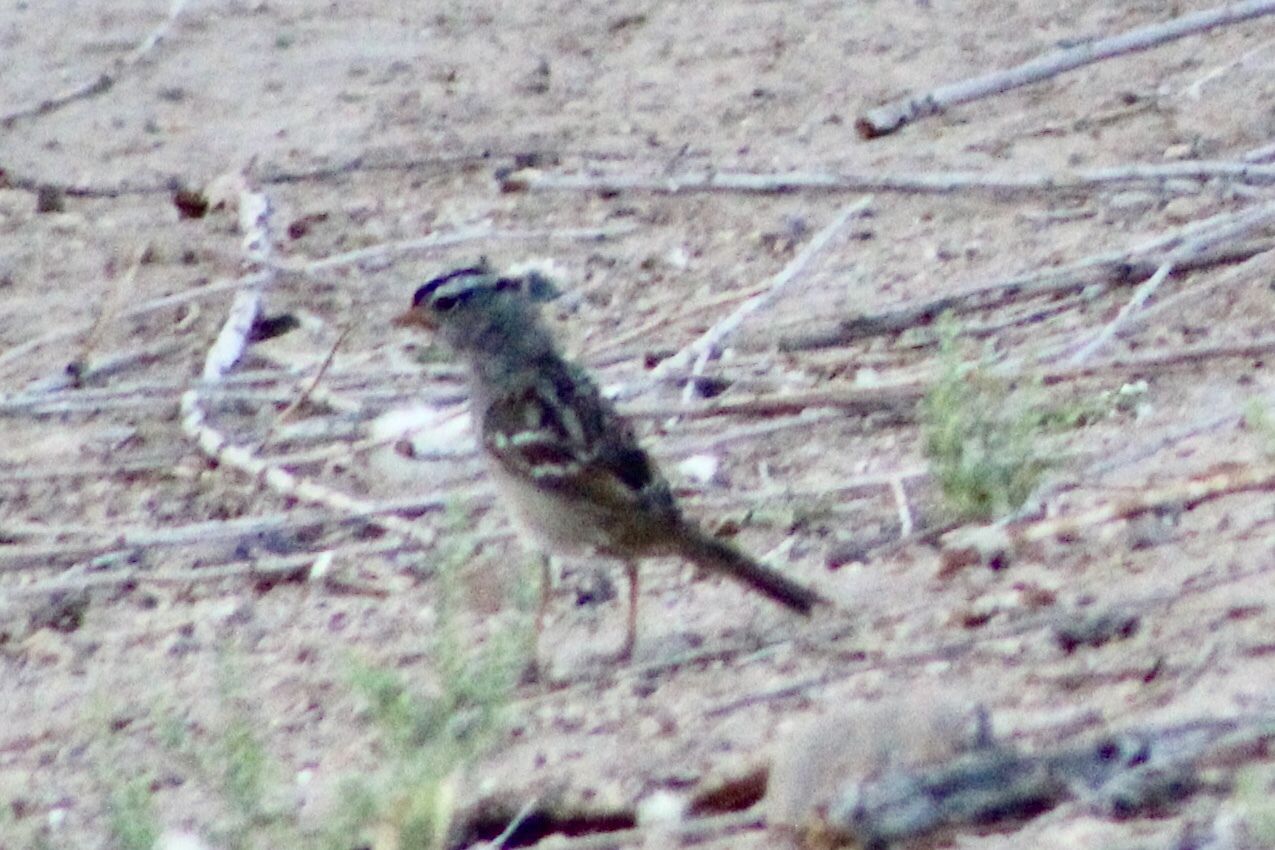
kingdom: Animalia
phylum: Chordata
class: Aves
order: Passeriformes
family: Passerellidae
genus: Zonotrichia
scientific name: Zonotrichia leucophrys
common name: White-crowned sparrow
